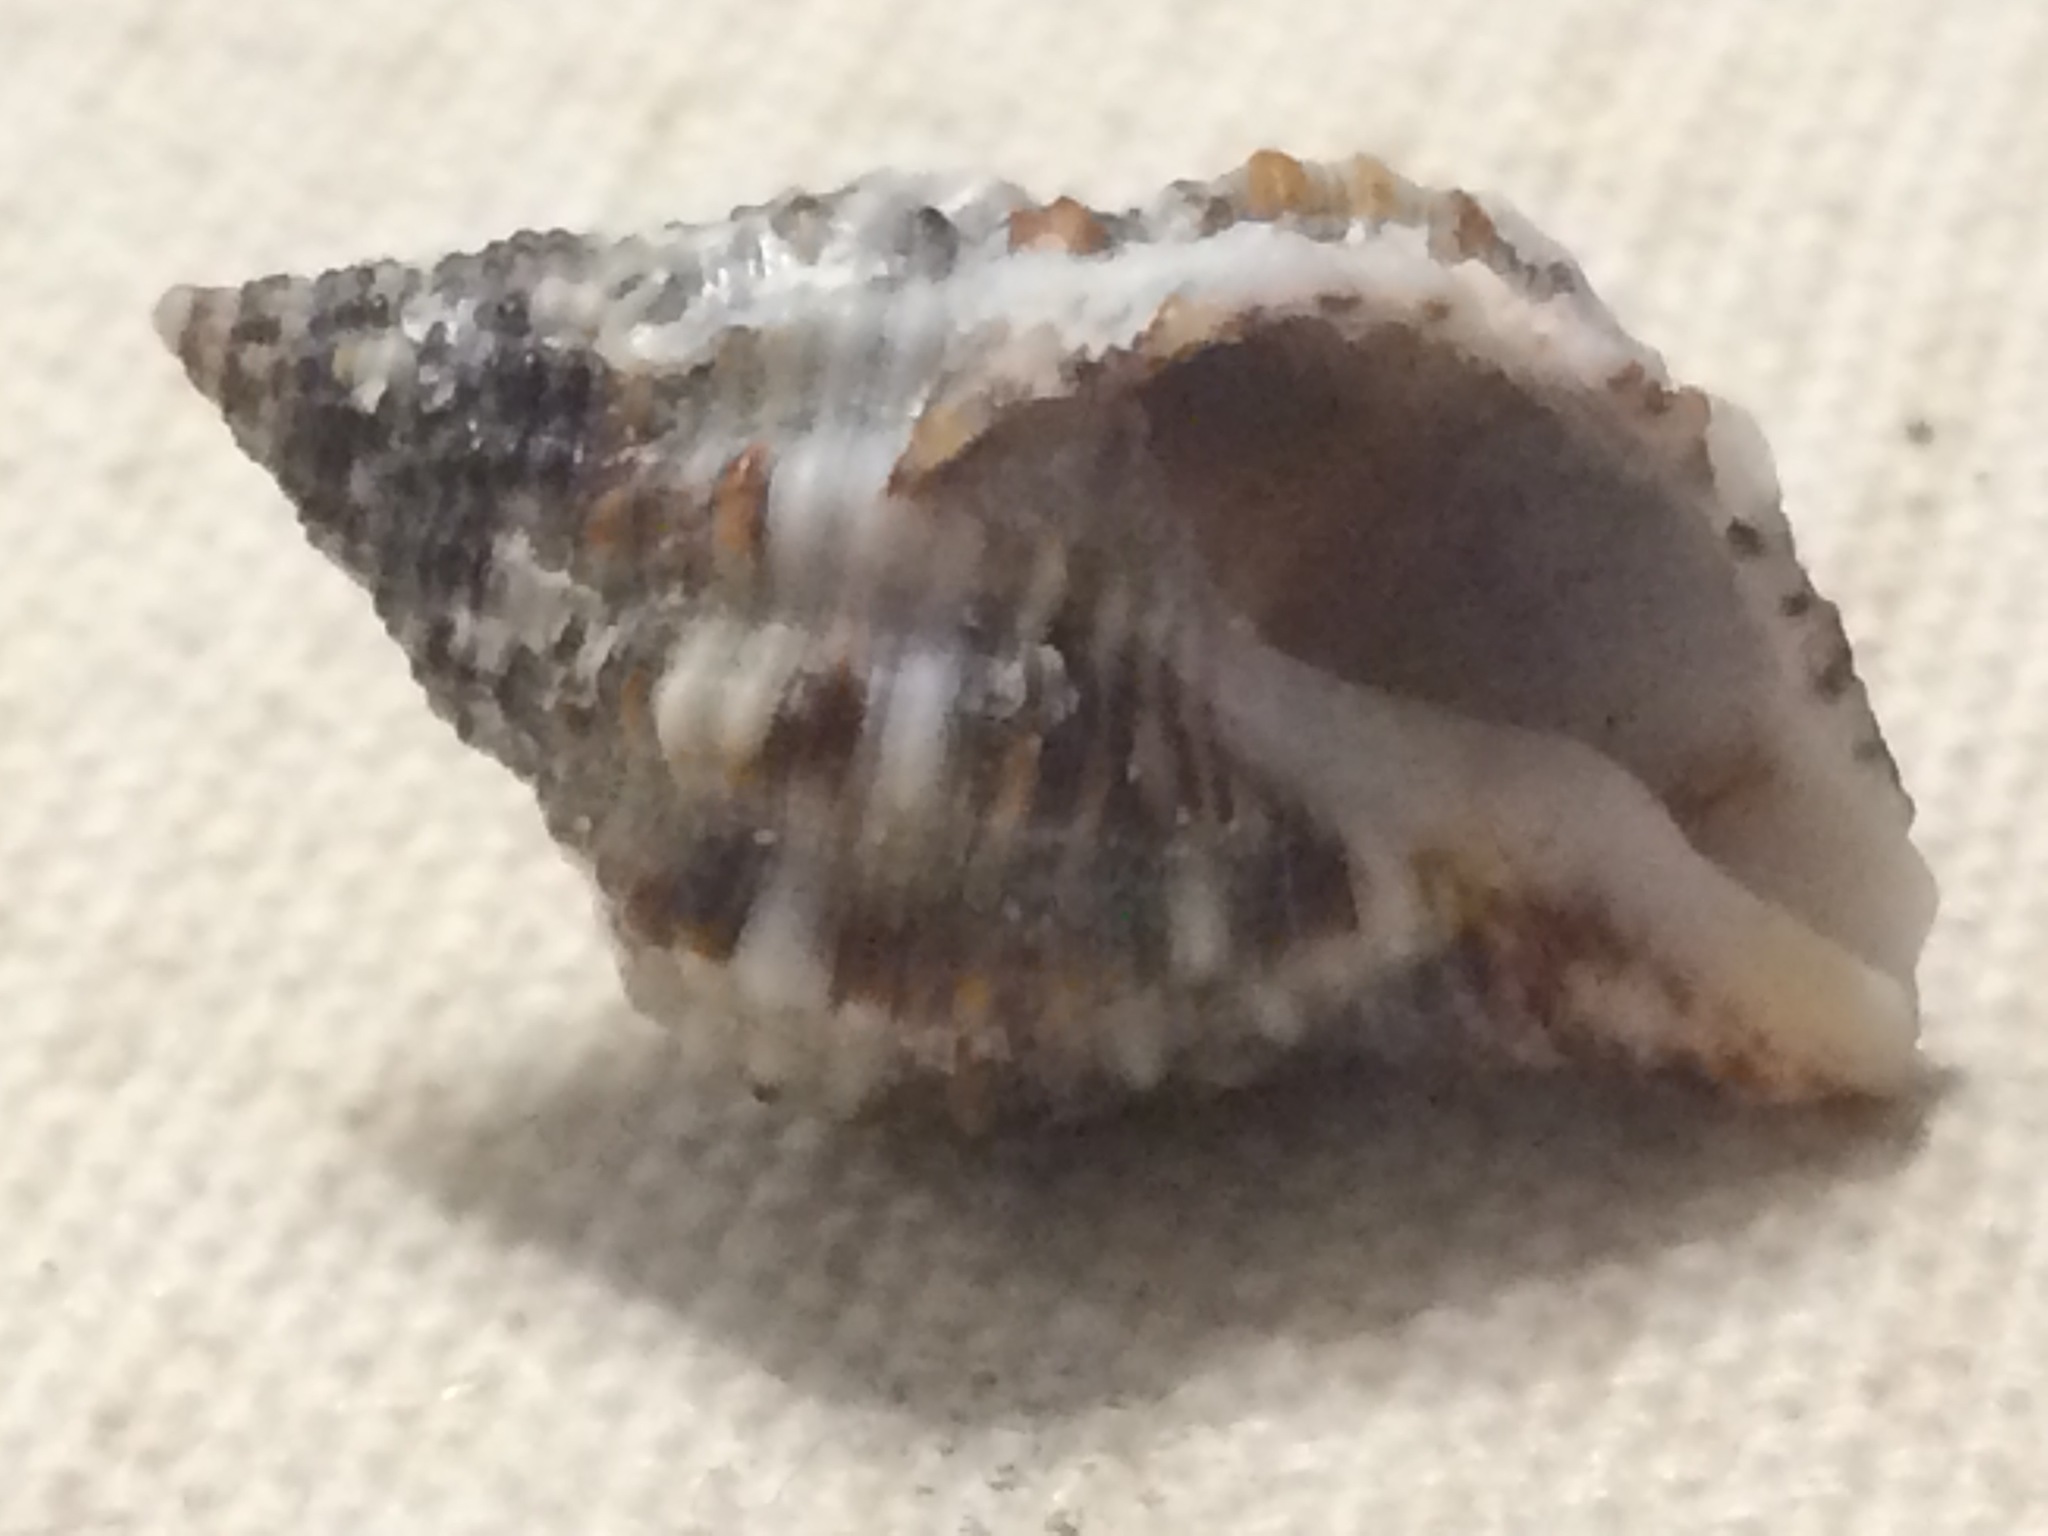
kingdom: Animalia
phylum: Mollusca
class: Gastropoda
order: Neogastropoda
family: Pisaniidae
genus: Gemophos
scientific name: Gemophos tinctus
